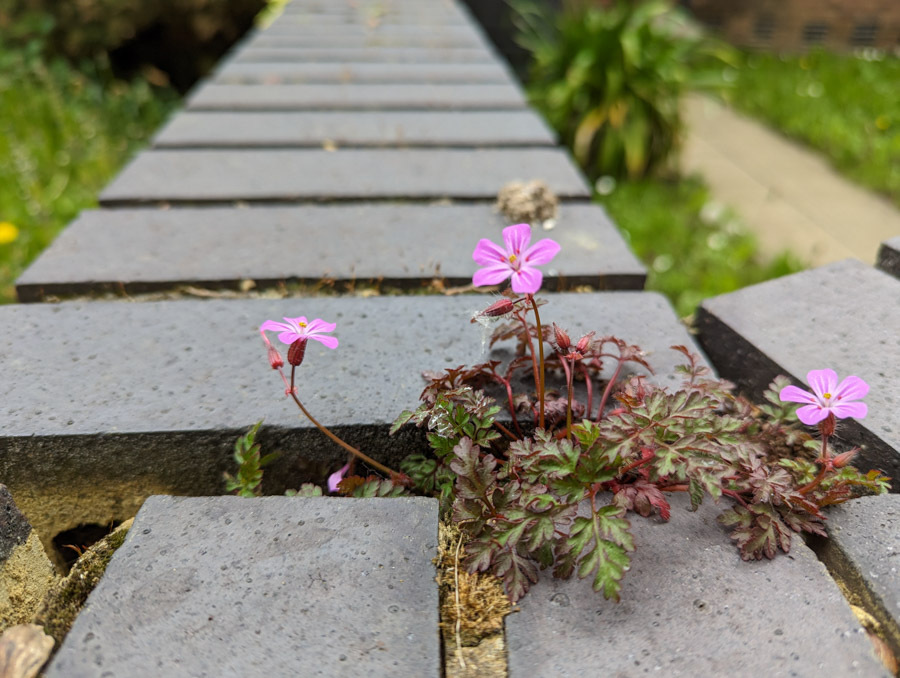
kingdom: Plantae
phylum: Tracheophyta
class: Magnoliopsida
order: Geraniales
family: Geraniaceae
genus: Geranium
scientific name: Geranium robertianum
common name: Herb-robert
